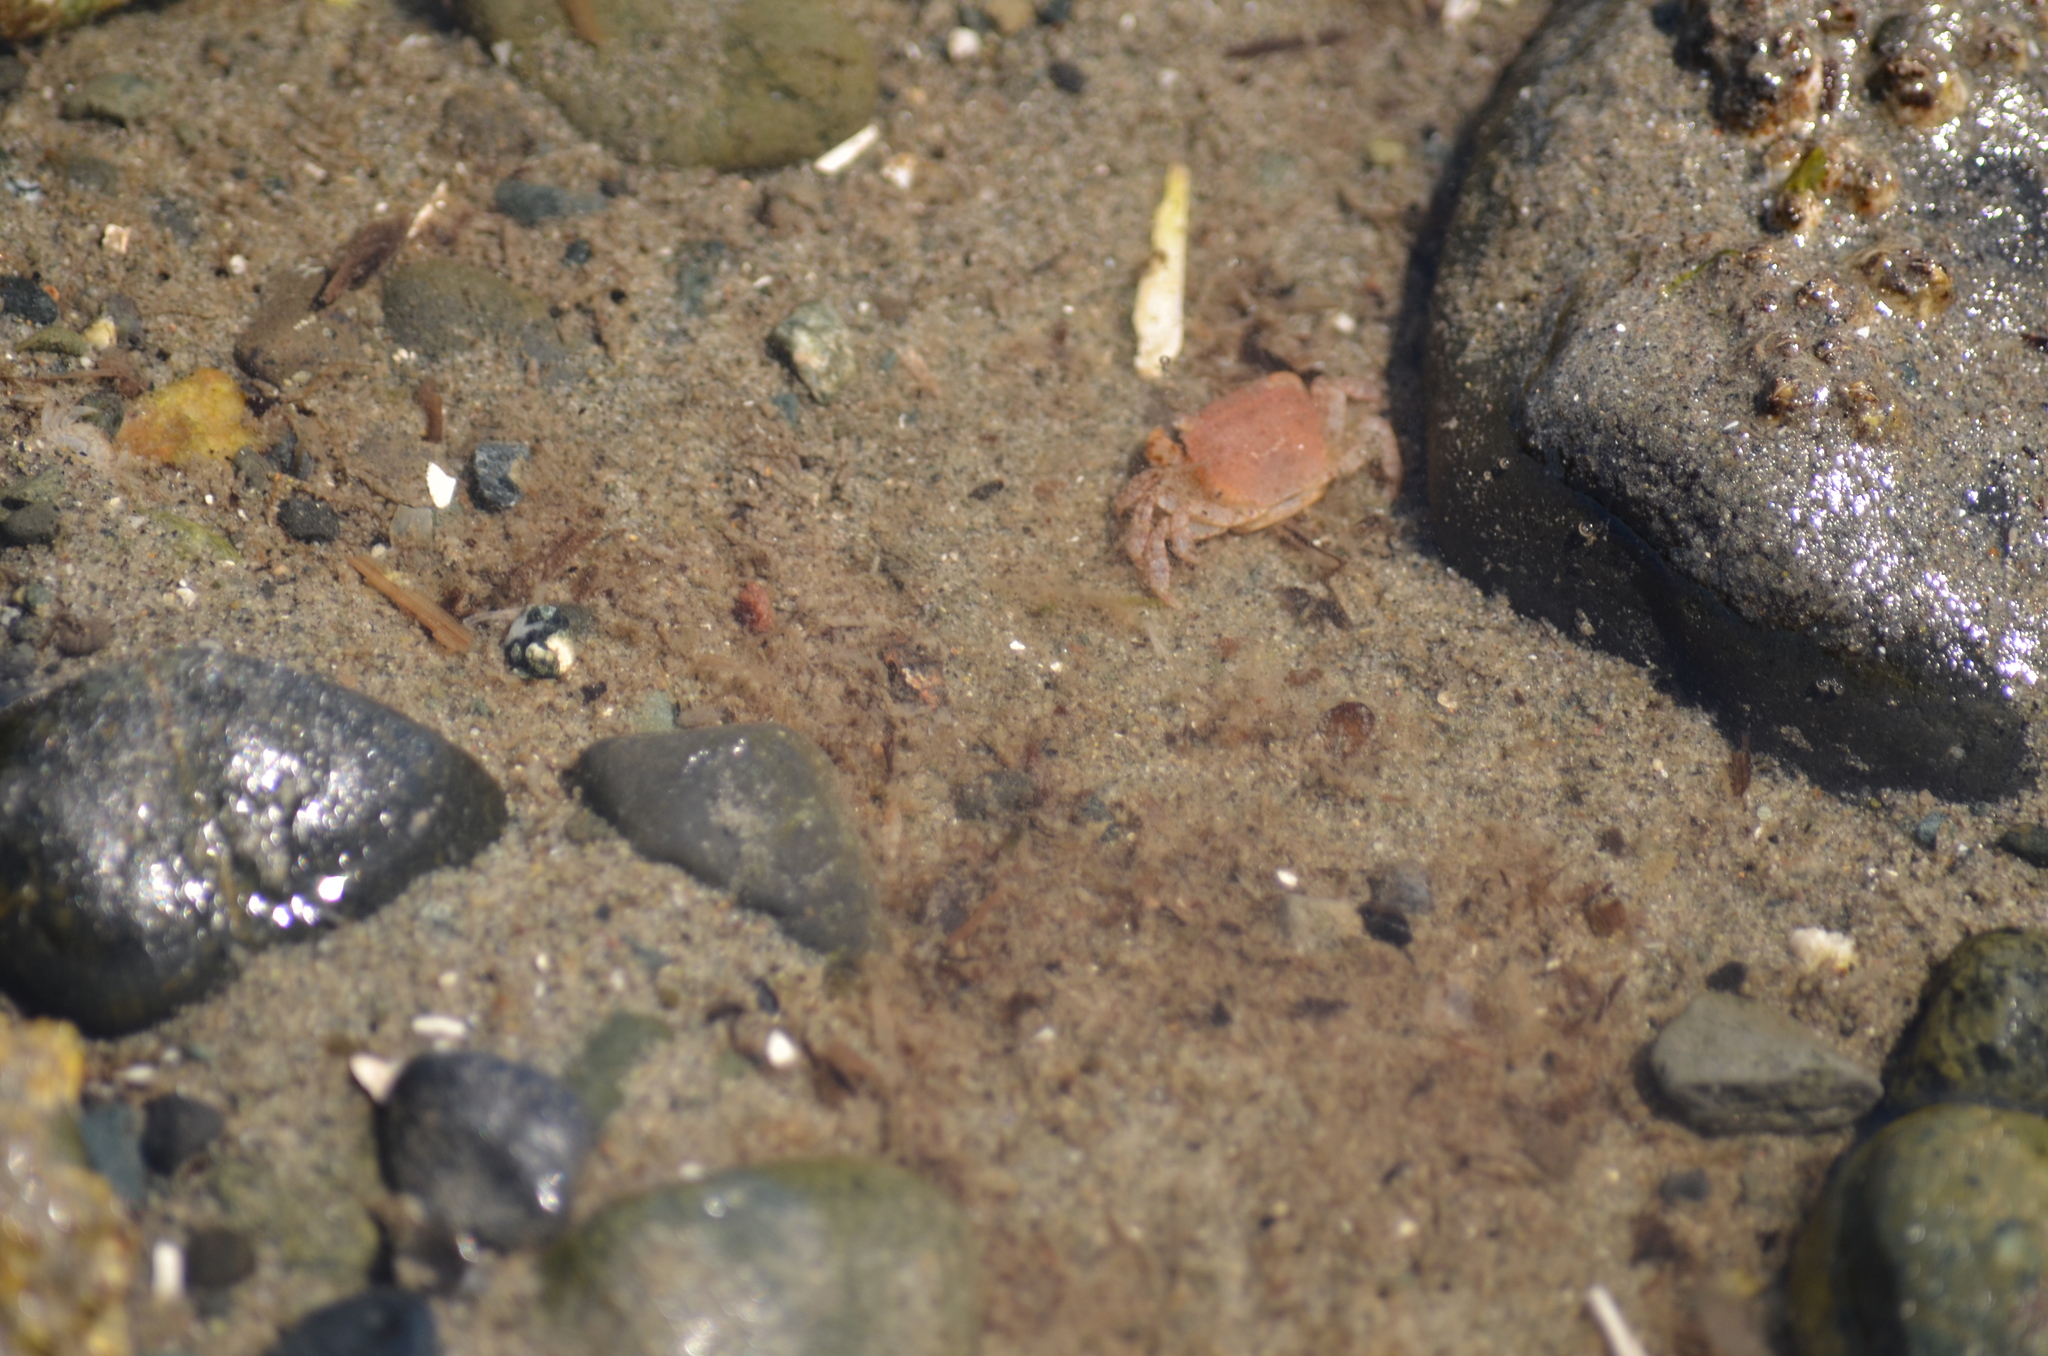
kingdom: Animalia
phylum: Arthropoda
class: Malacostraca
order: Decapoda
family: Varunidae
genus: Hemigrapsus
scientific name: Hemigrapsus oregonensis
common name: Yellow shore crab
